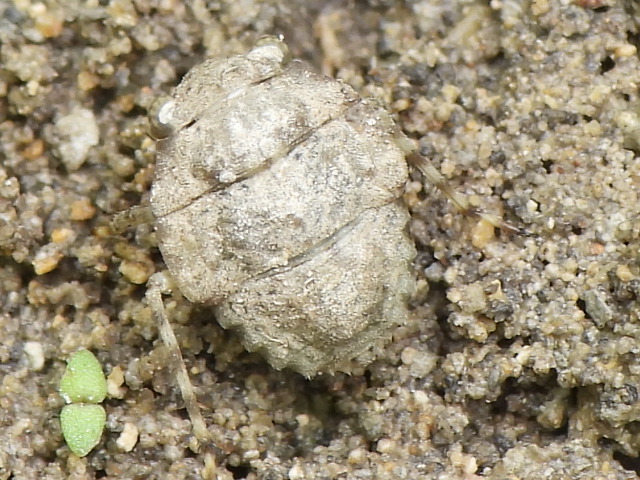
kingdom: Animalia
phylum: Arthropoda
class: Insecta
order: Hemiptera
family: Gelastocoridae
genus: Gelastocoris
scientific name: Gelastocoris oculatus
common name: Toad bug
